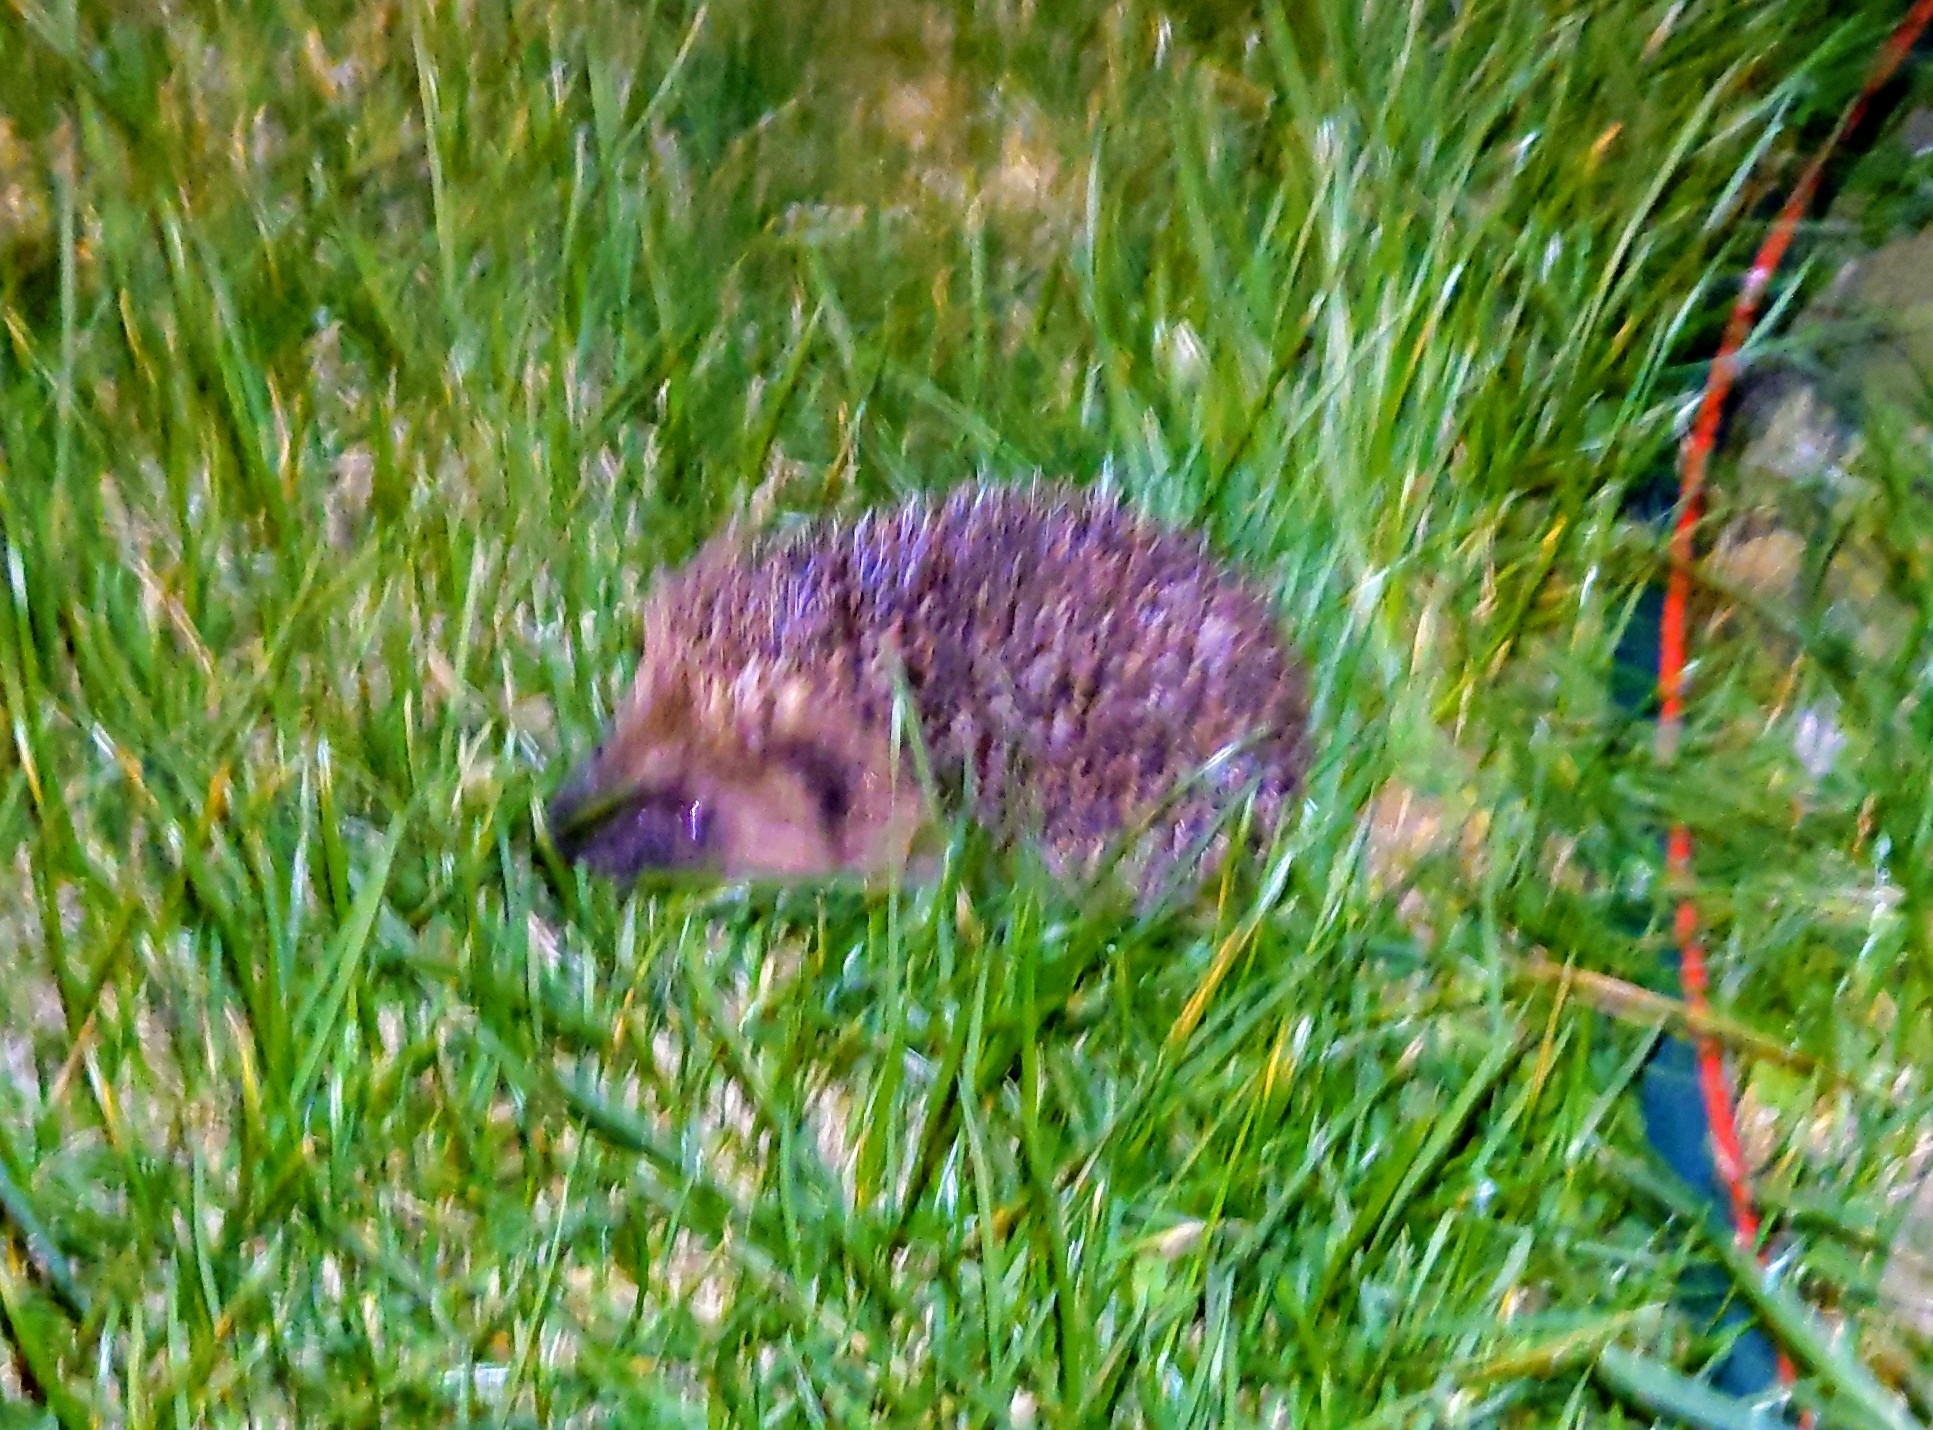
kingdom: Animalia
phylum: Chordata
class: Mammalia
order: Erinaceomorpha
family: Erinaceidae
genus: Erinaceus
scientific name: Erinaceus europaeus
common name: West european hedgehog
